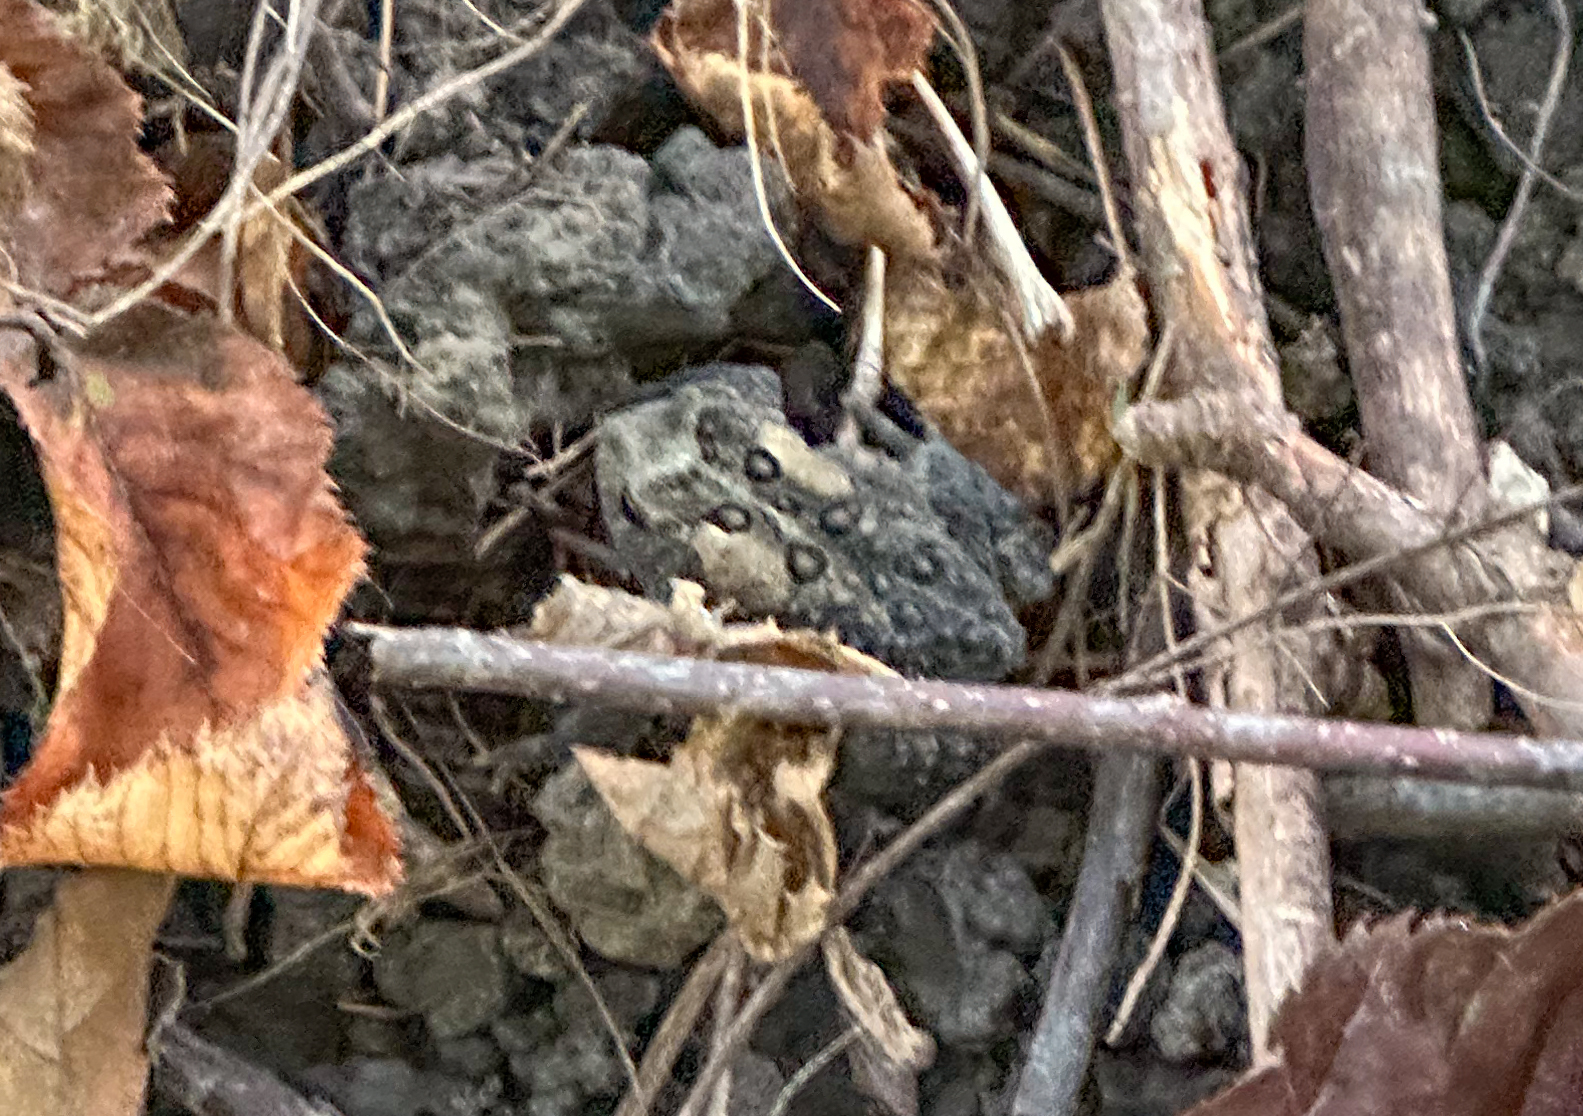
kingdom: Animalia
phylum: Chordata
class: Amphibia
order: Anura
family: Bufonidae
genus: Anaxyrus
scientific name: Anaxyrus americanus
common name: American toad
